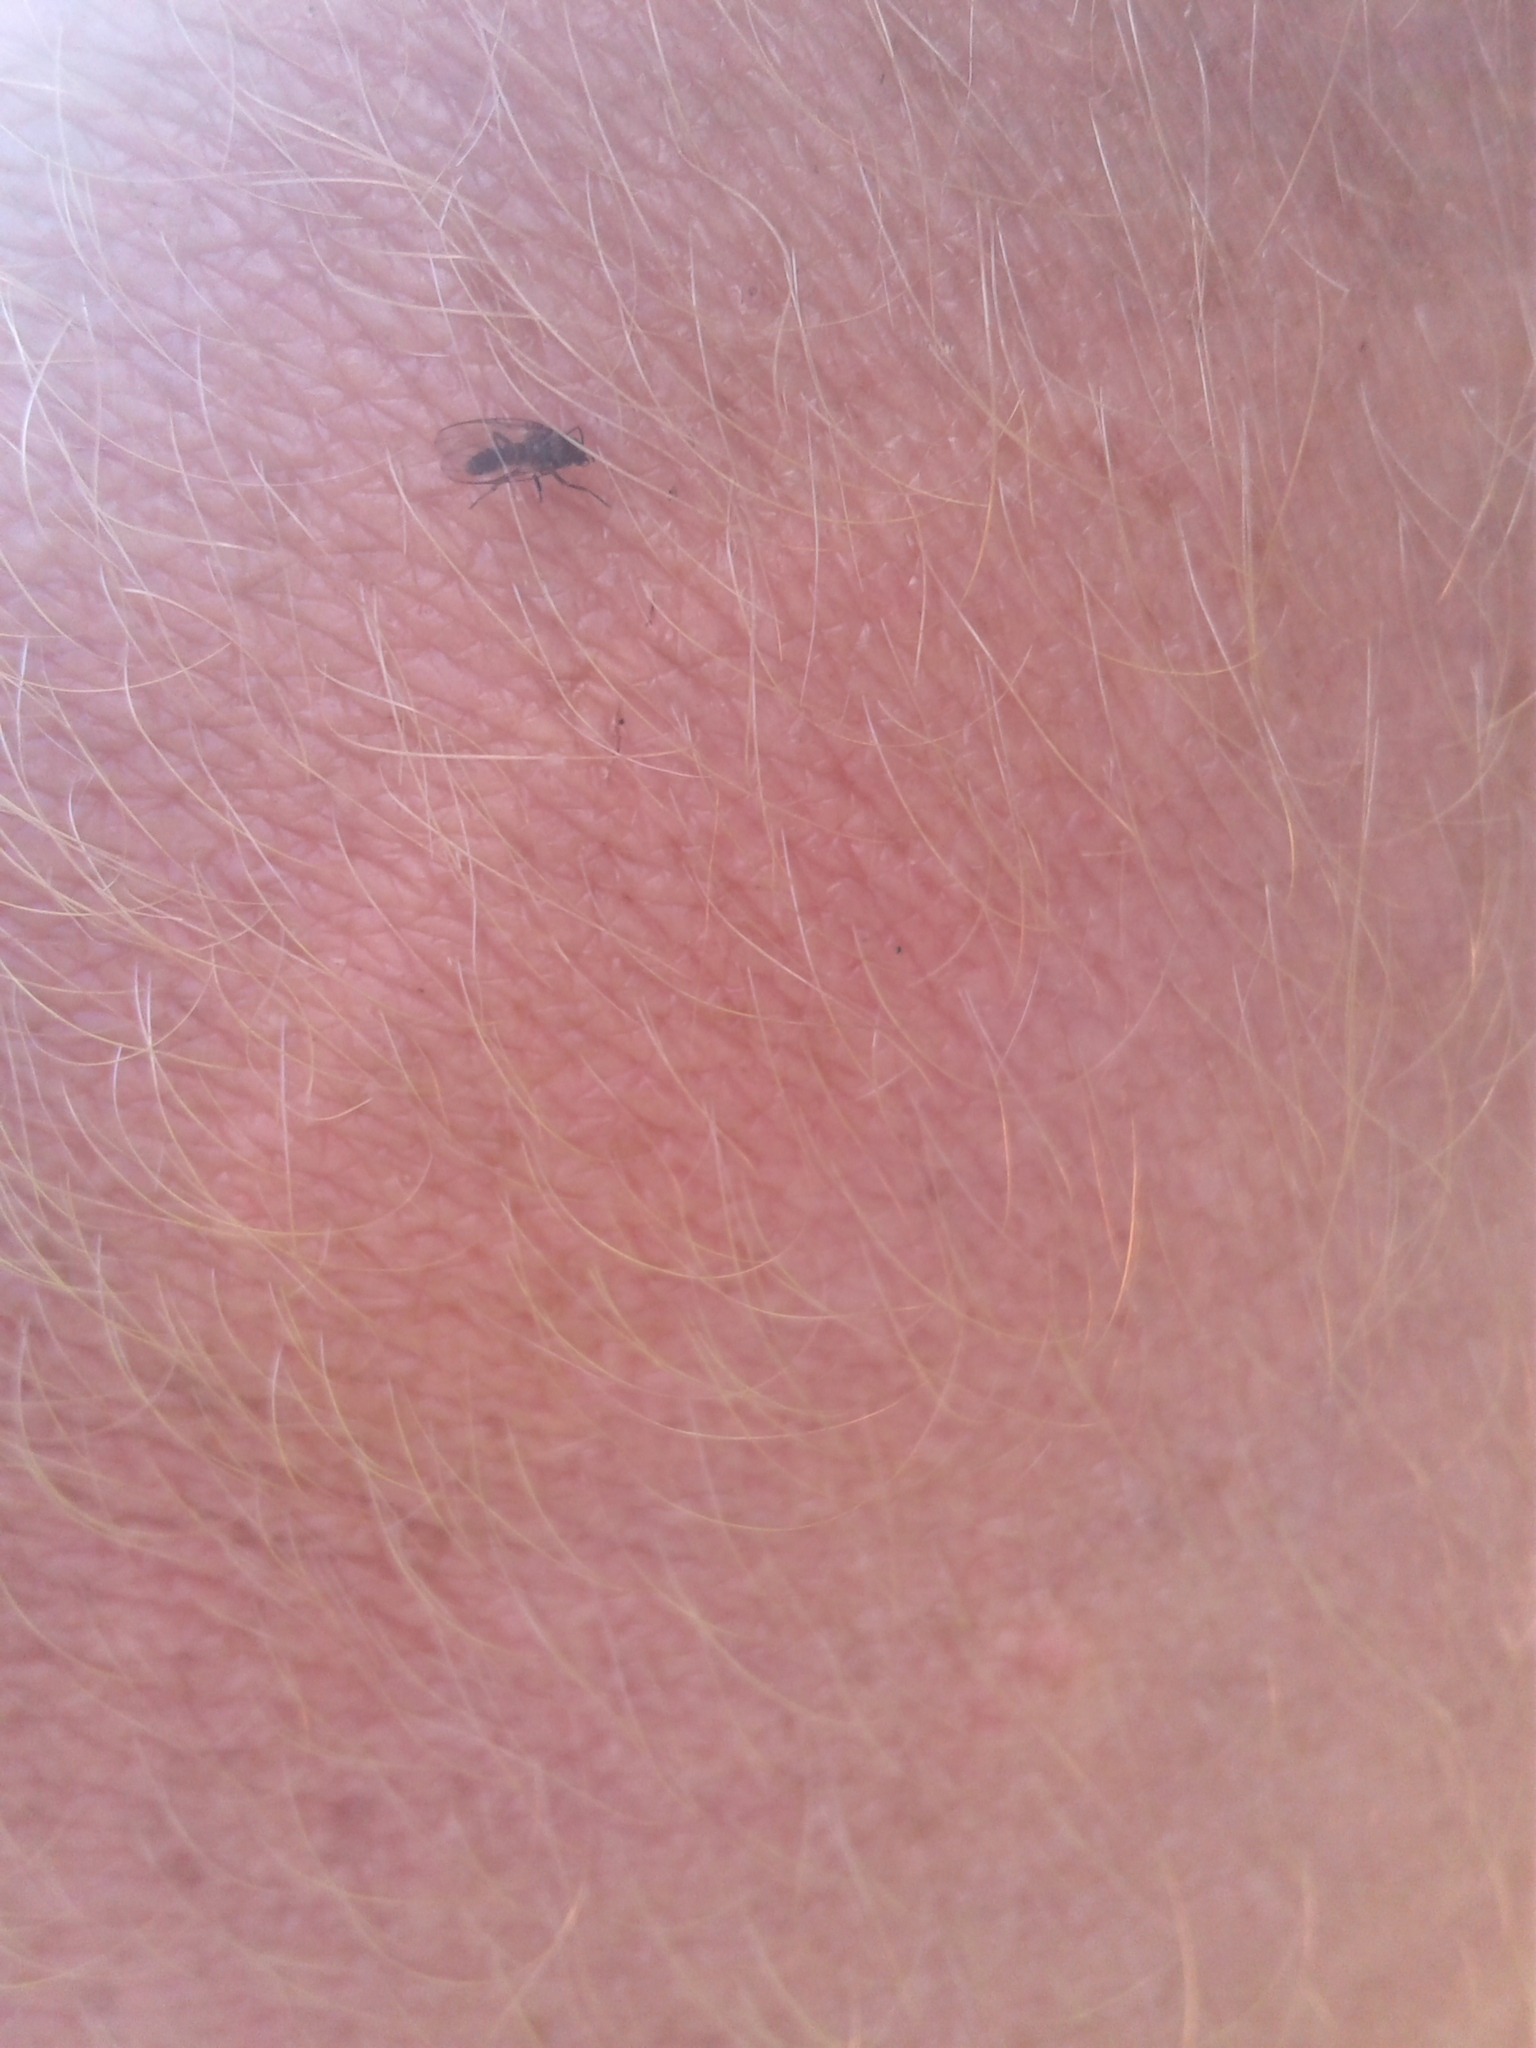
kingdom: Animalia
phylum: Arthropoda
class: Insecta
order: Diptera
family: Simuliidae
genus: Austrosimulium
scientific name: Austrosimulium
